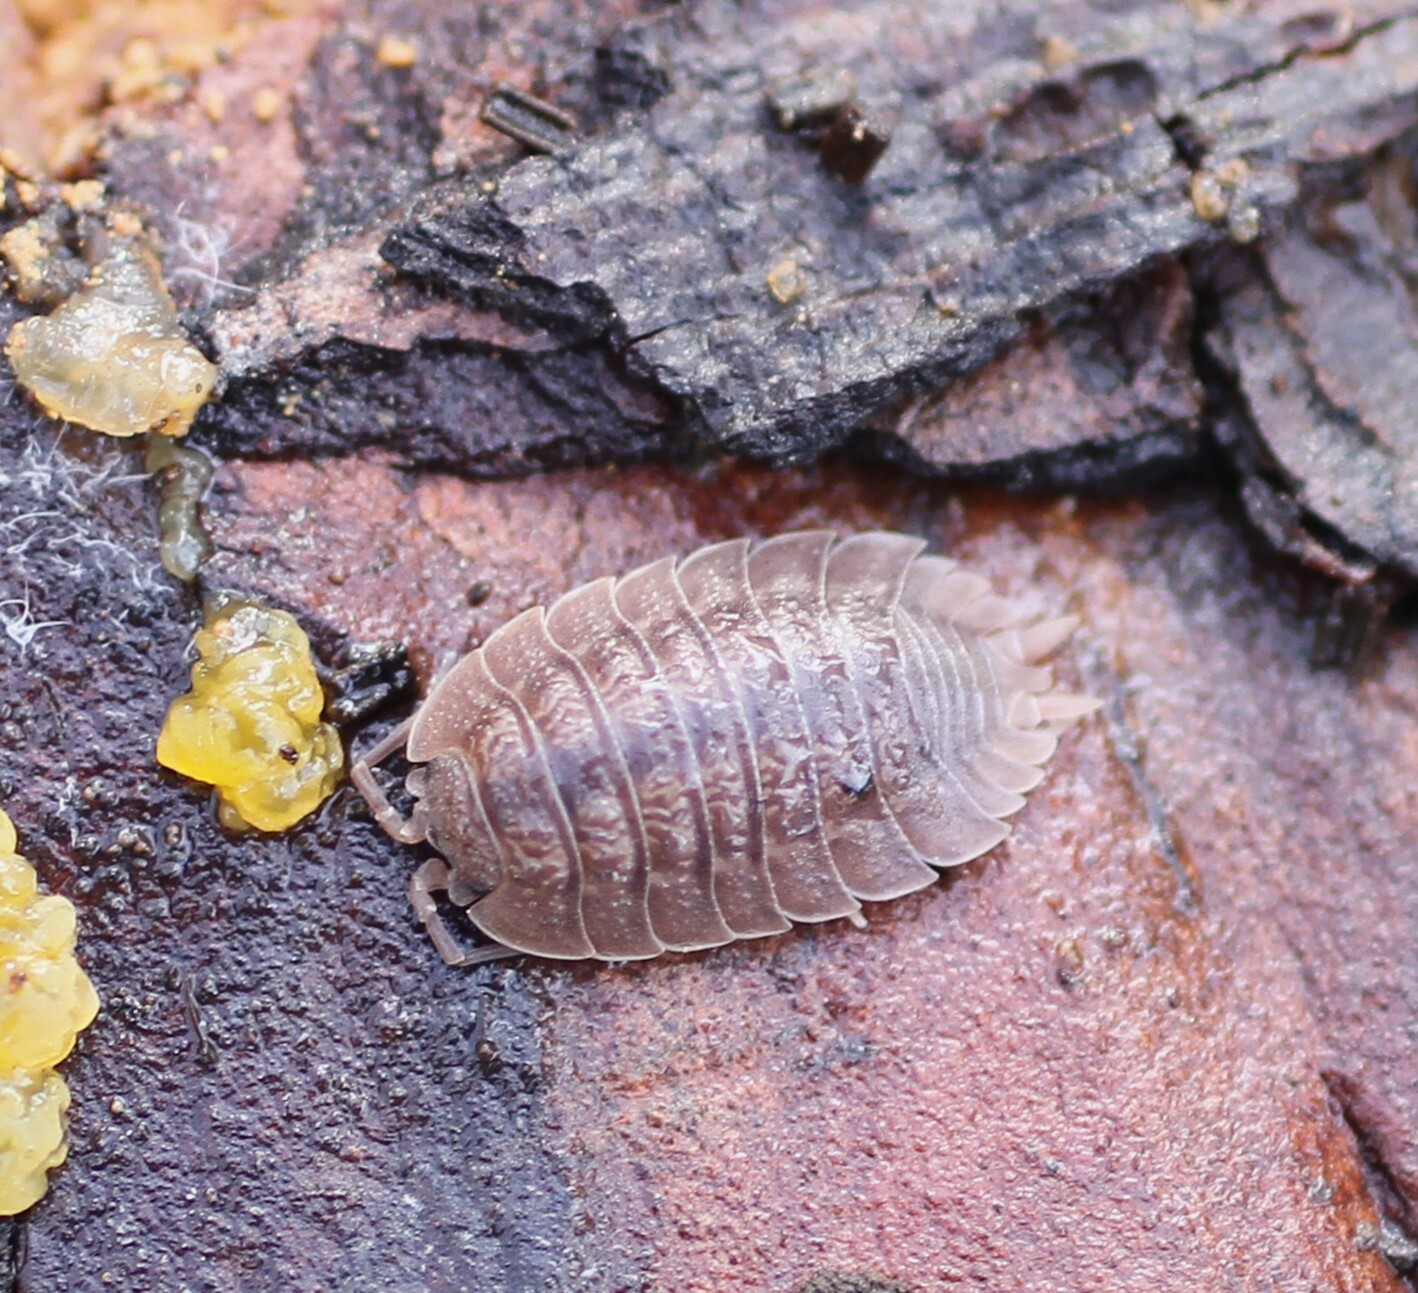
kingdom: Animalia
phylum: Arthropoda
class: Malacostraca
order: Isopoda
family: Porcellionidae
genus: Porcellio
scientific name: Porcellio dilatatus
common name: Isopod
